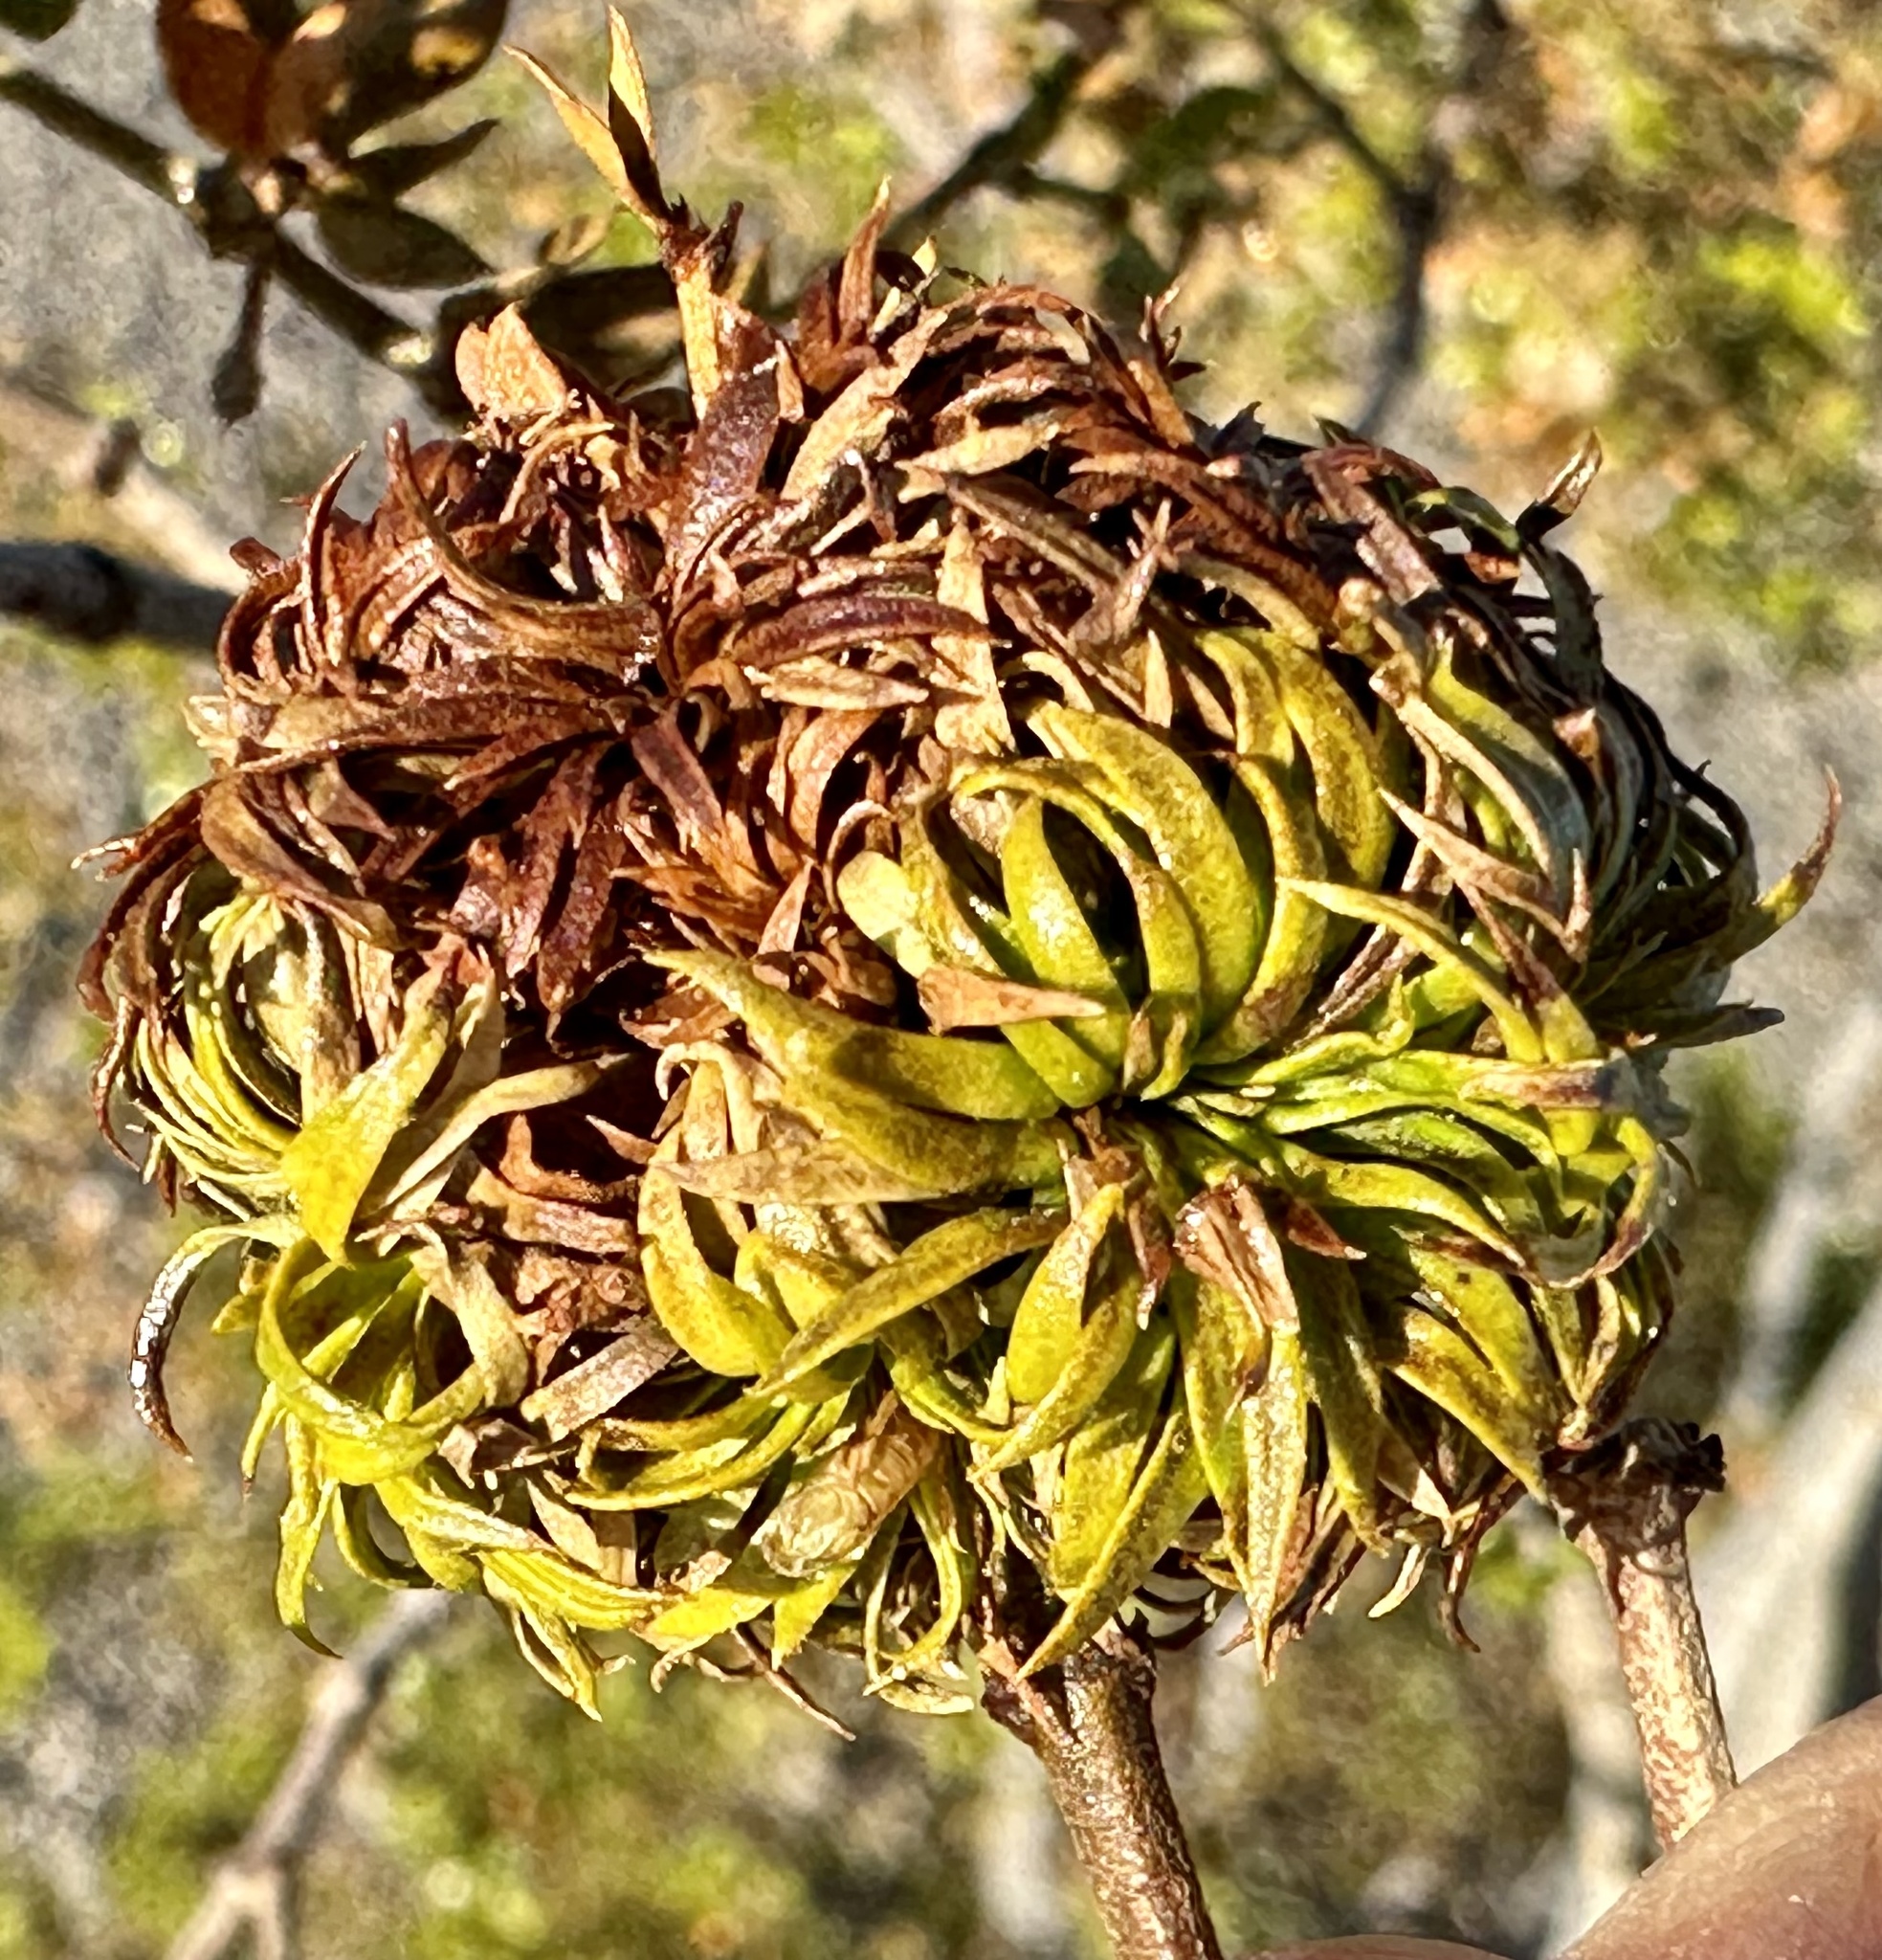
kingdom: Animalia
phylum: Arthropoda
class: Insecta
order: Diptera
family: Cecidomyiidae
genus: Asphondylia
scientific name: Asphondylia auripila
